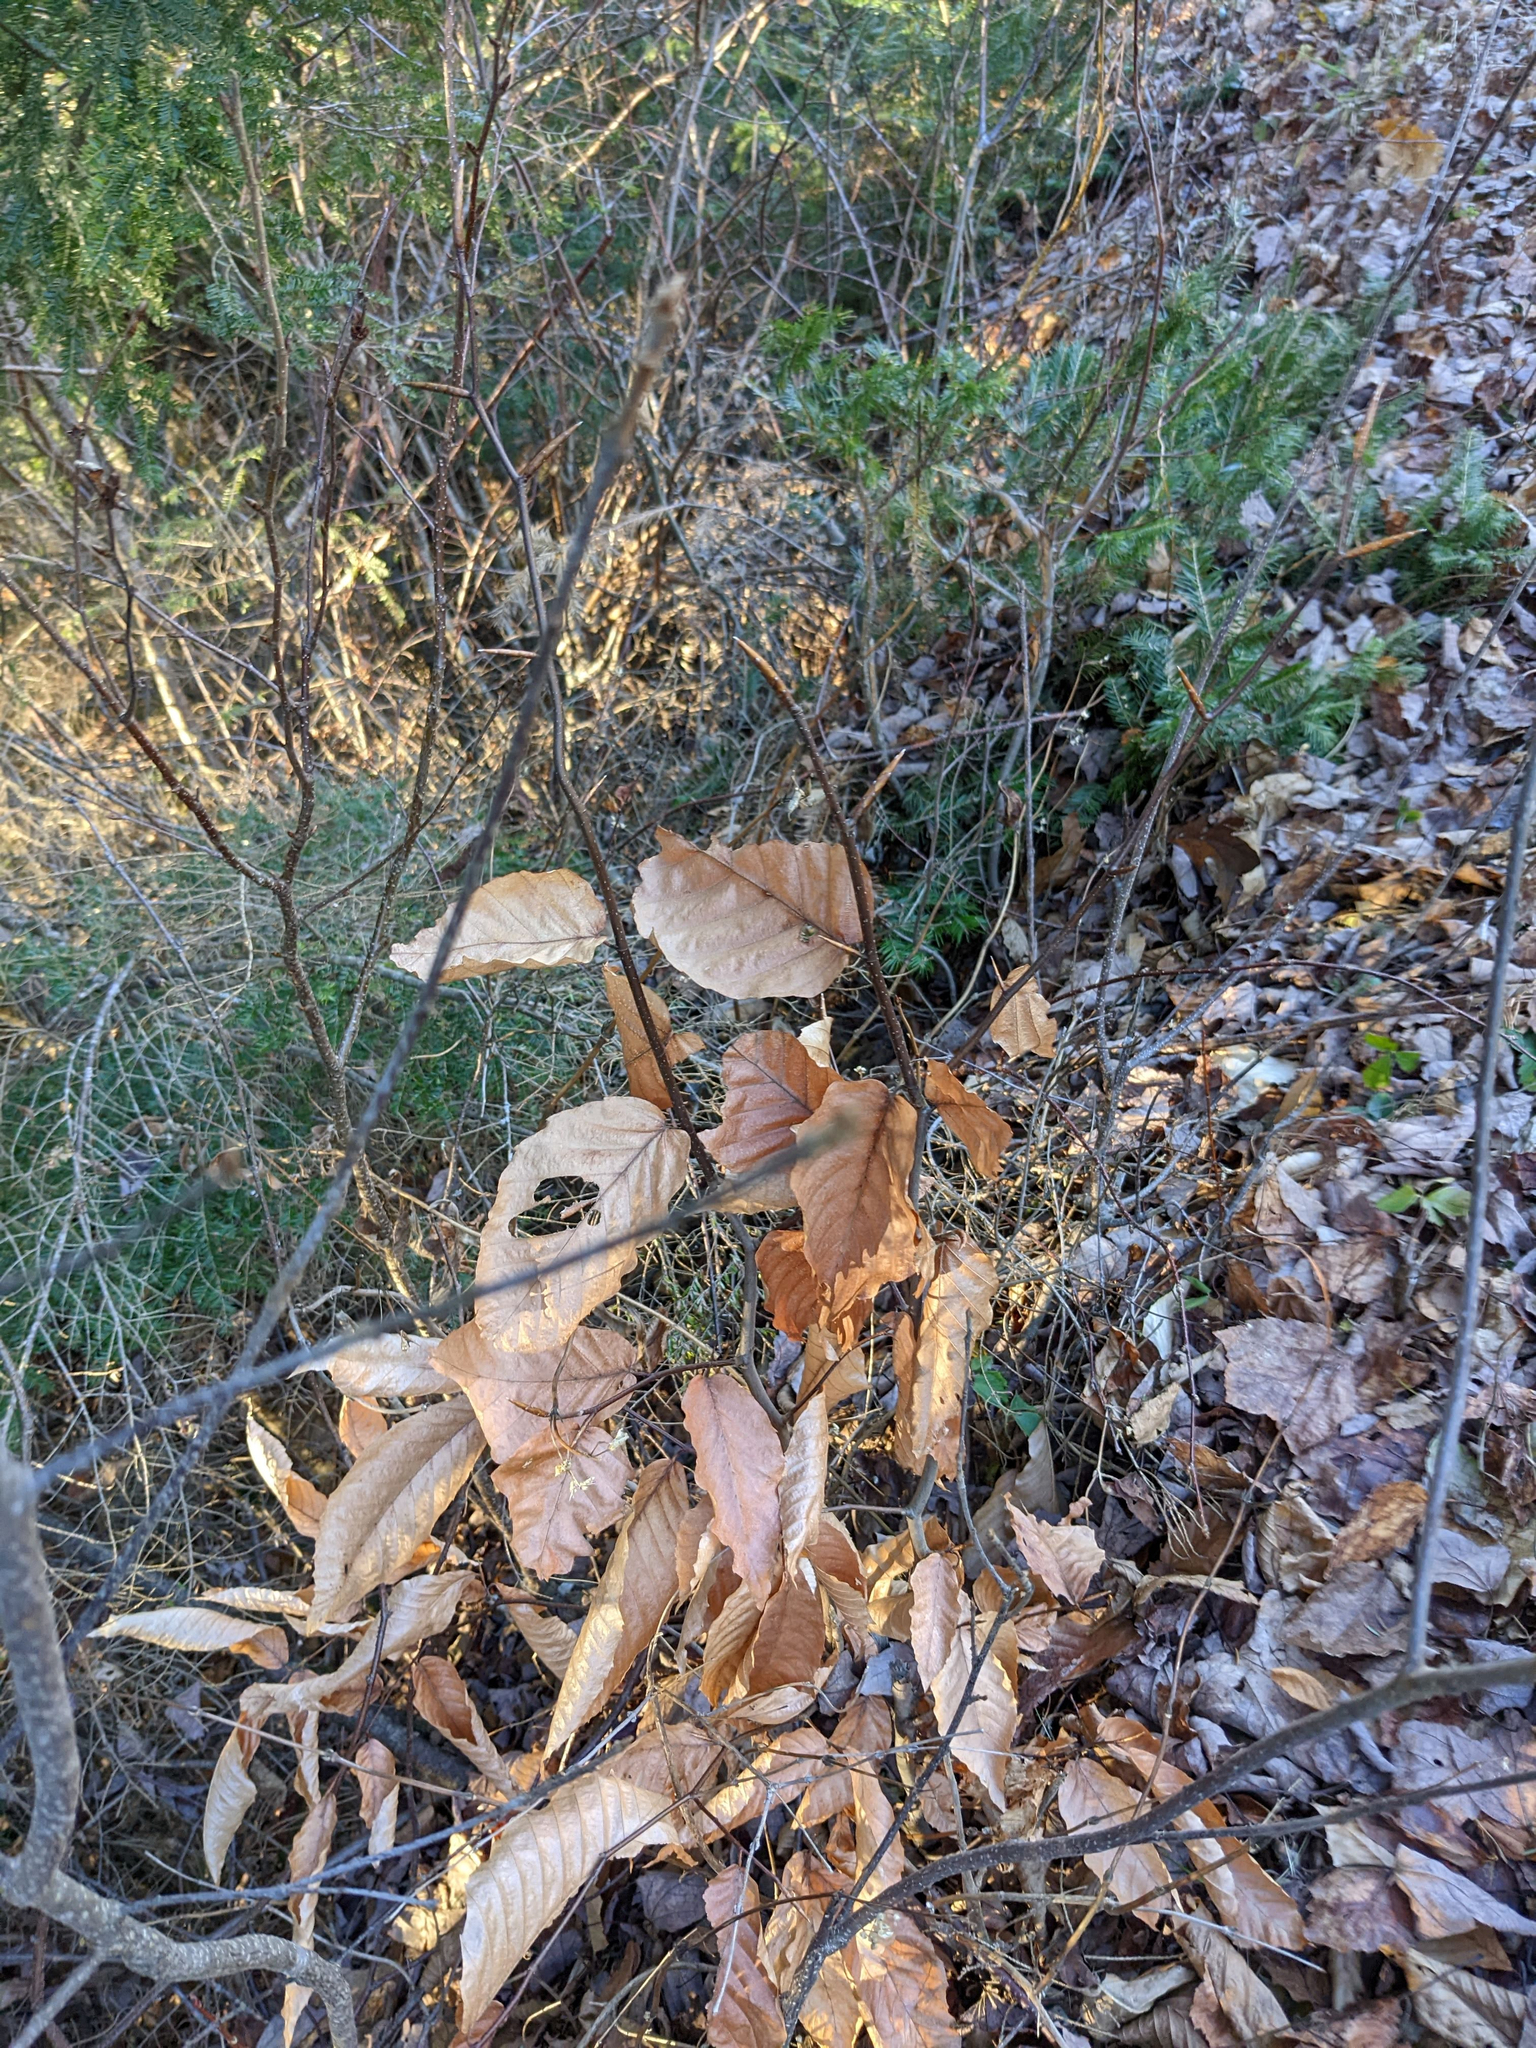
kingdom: Plantae
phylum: Tracheophyta
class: Magnoliopsida
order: Fagales
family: Fagaceae
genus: Fagus
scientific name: Fagus grandifolia
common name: American beech
